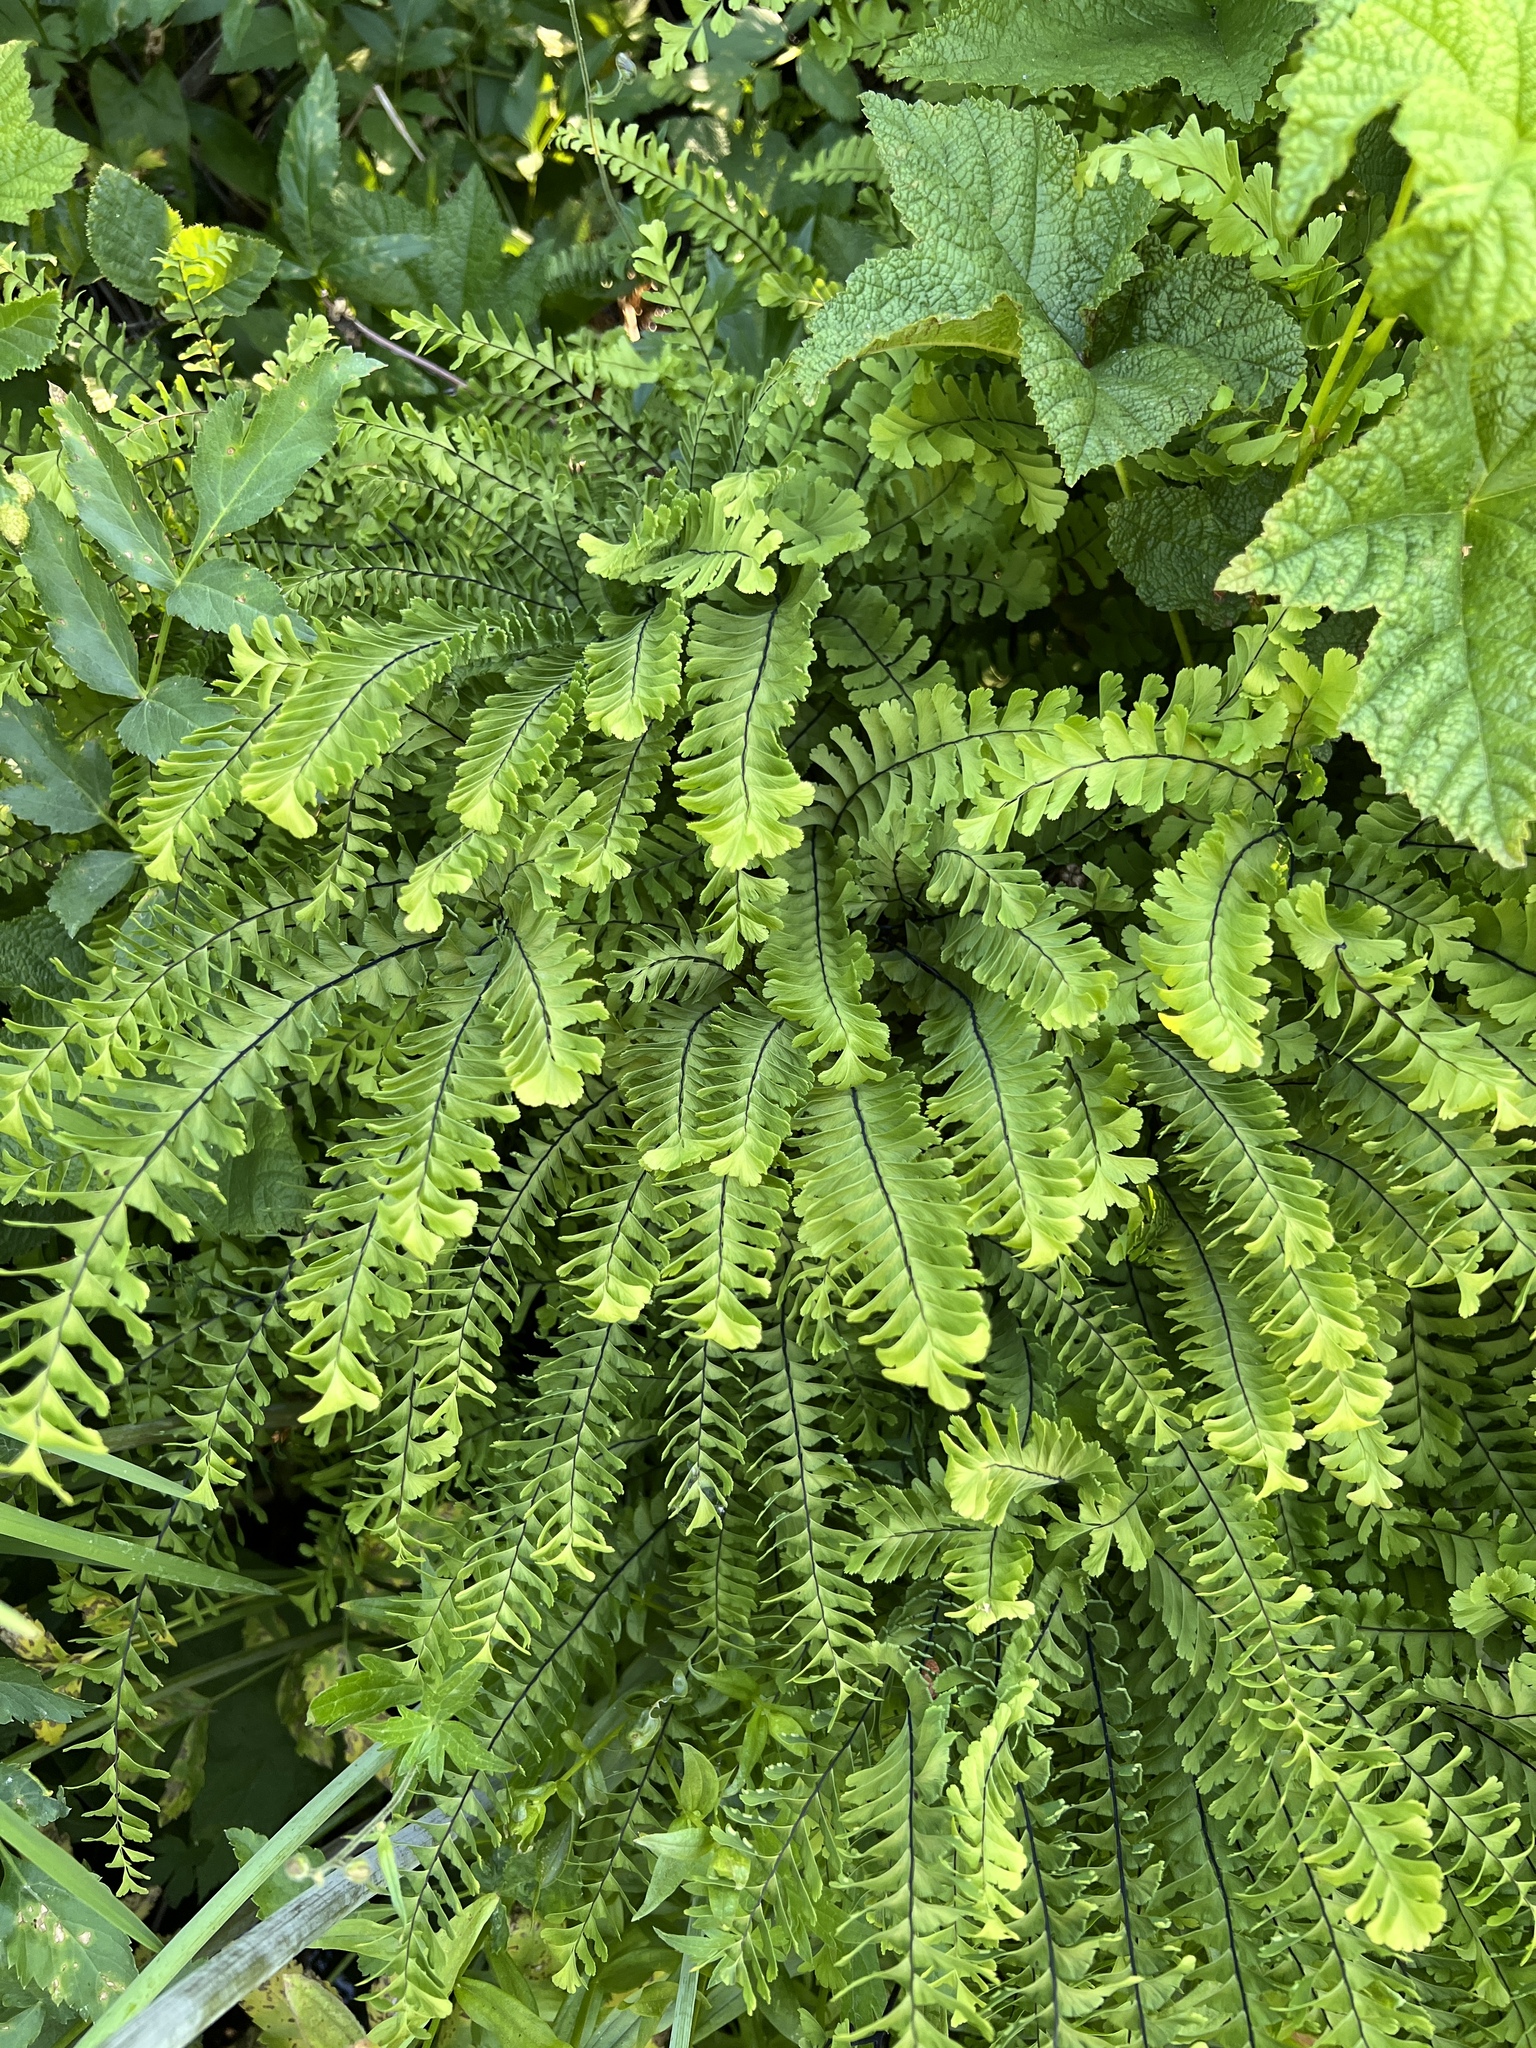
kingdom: Plantae
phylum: Tracheophyta
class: Polypodiopsida
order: Polypodiales
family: Pteridaceae
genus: Adiantum
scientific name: Adiantum aleuticum
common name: Aleutian maidenhair fern
